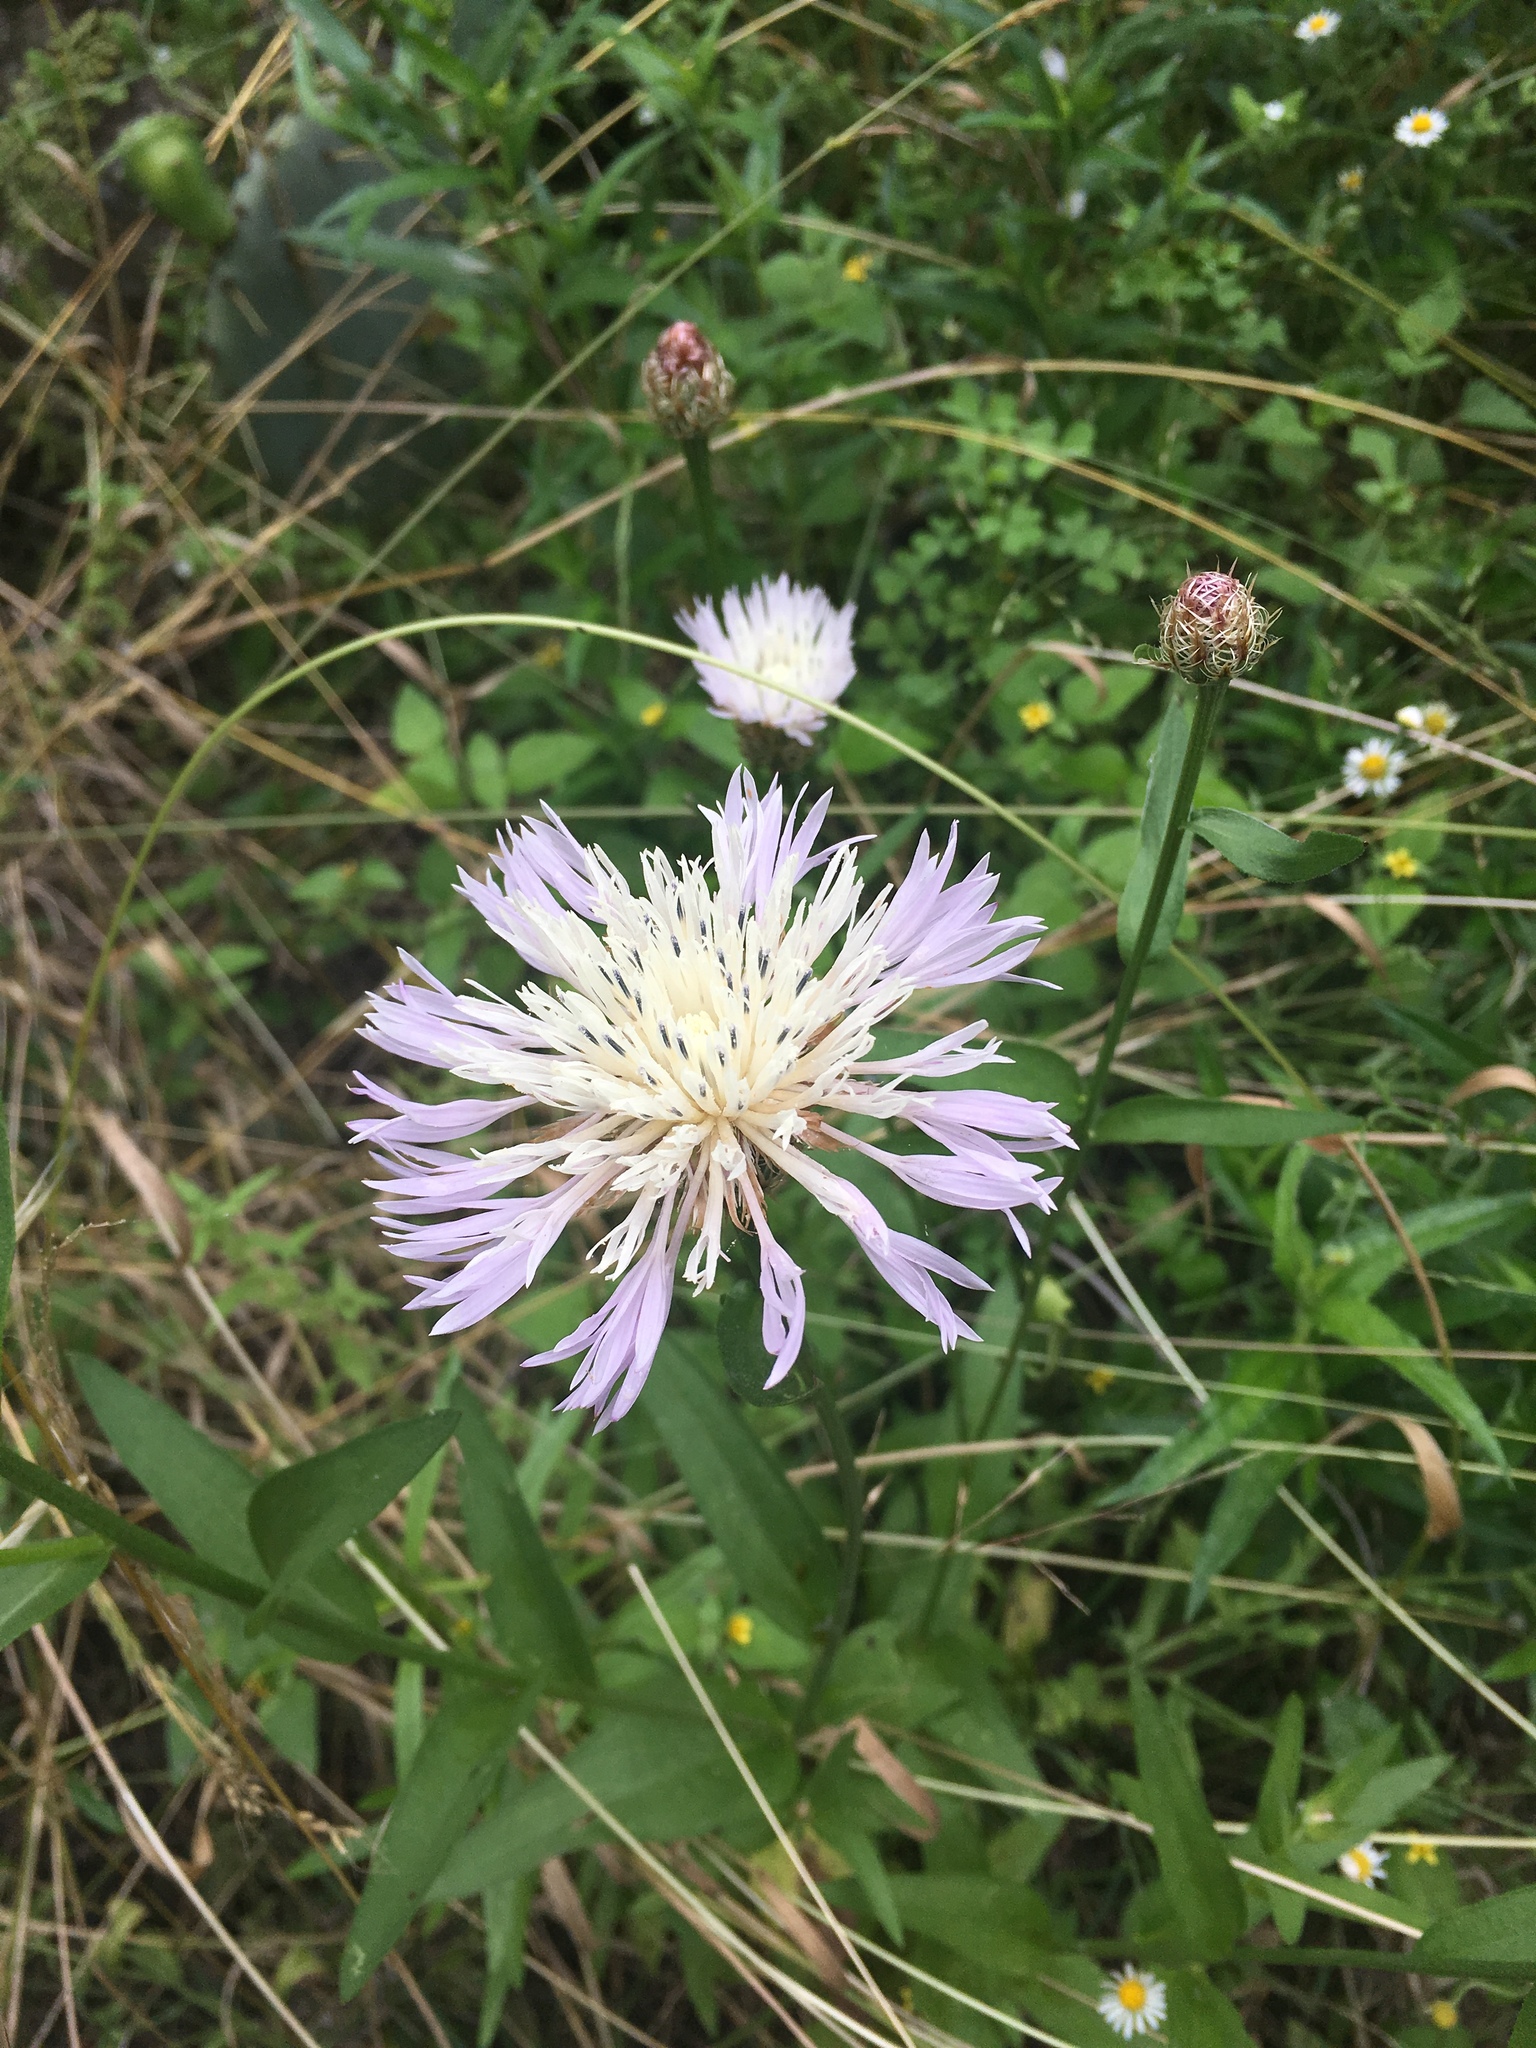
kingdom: Plantae
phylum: Tracheophyta
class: Magnoliopsida
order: Asterales
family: Asteraceae
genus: Plectocephalus
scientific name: Plectocephalus americanus
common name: American basket-flower
